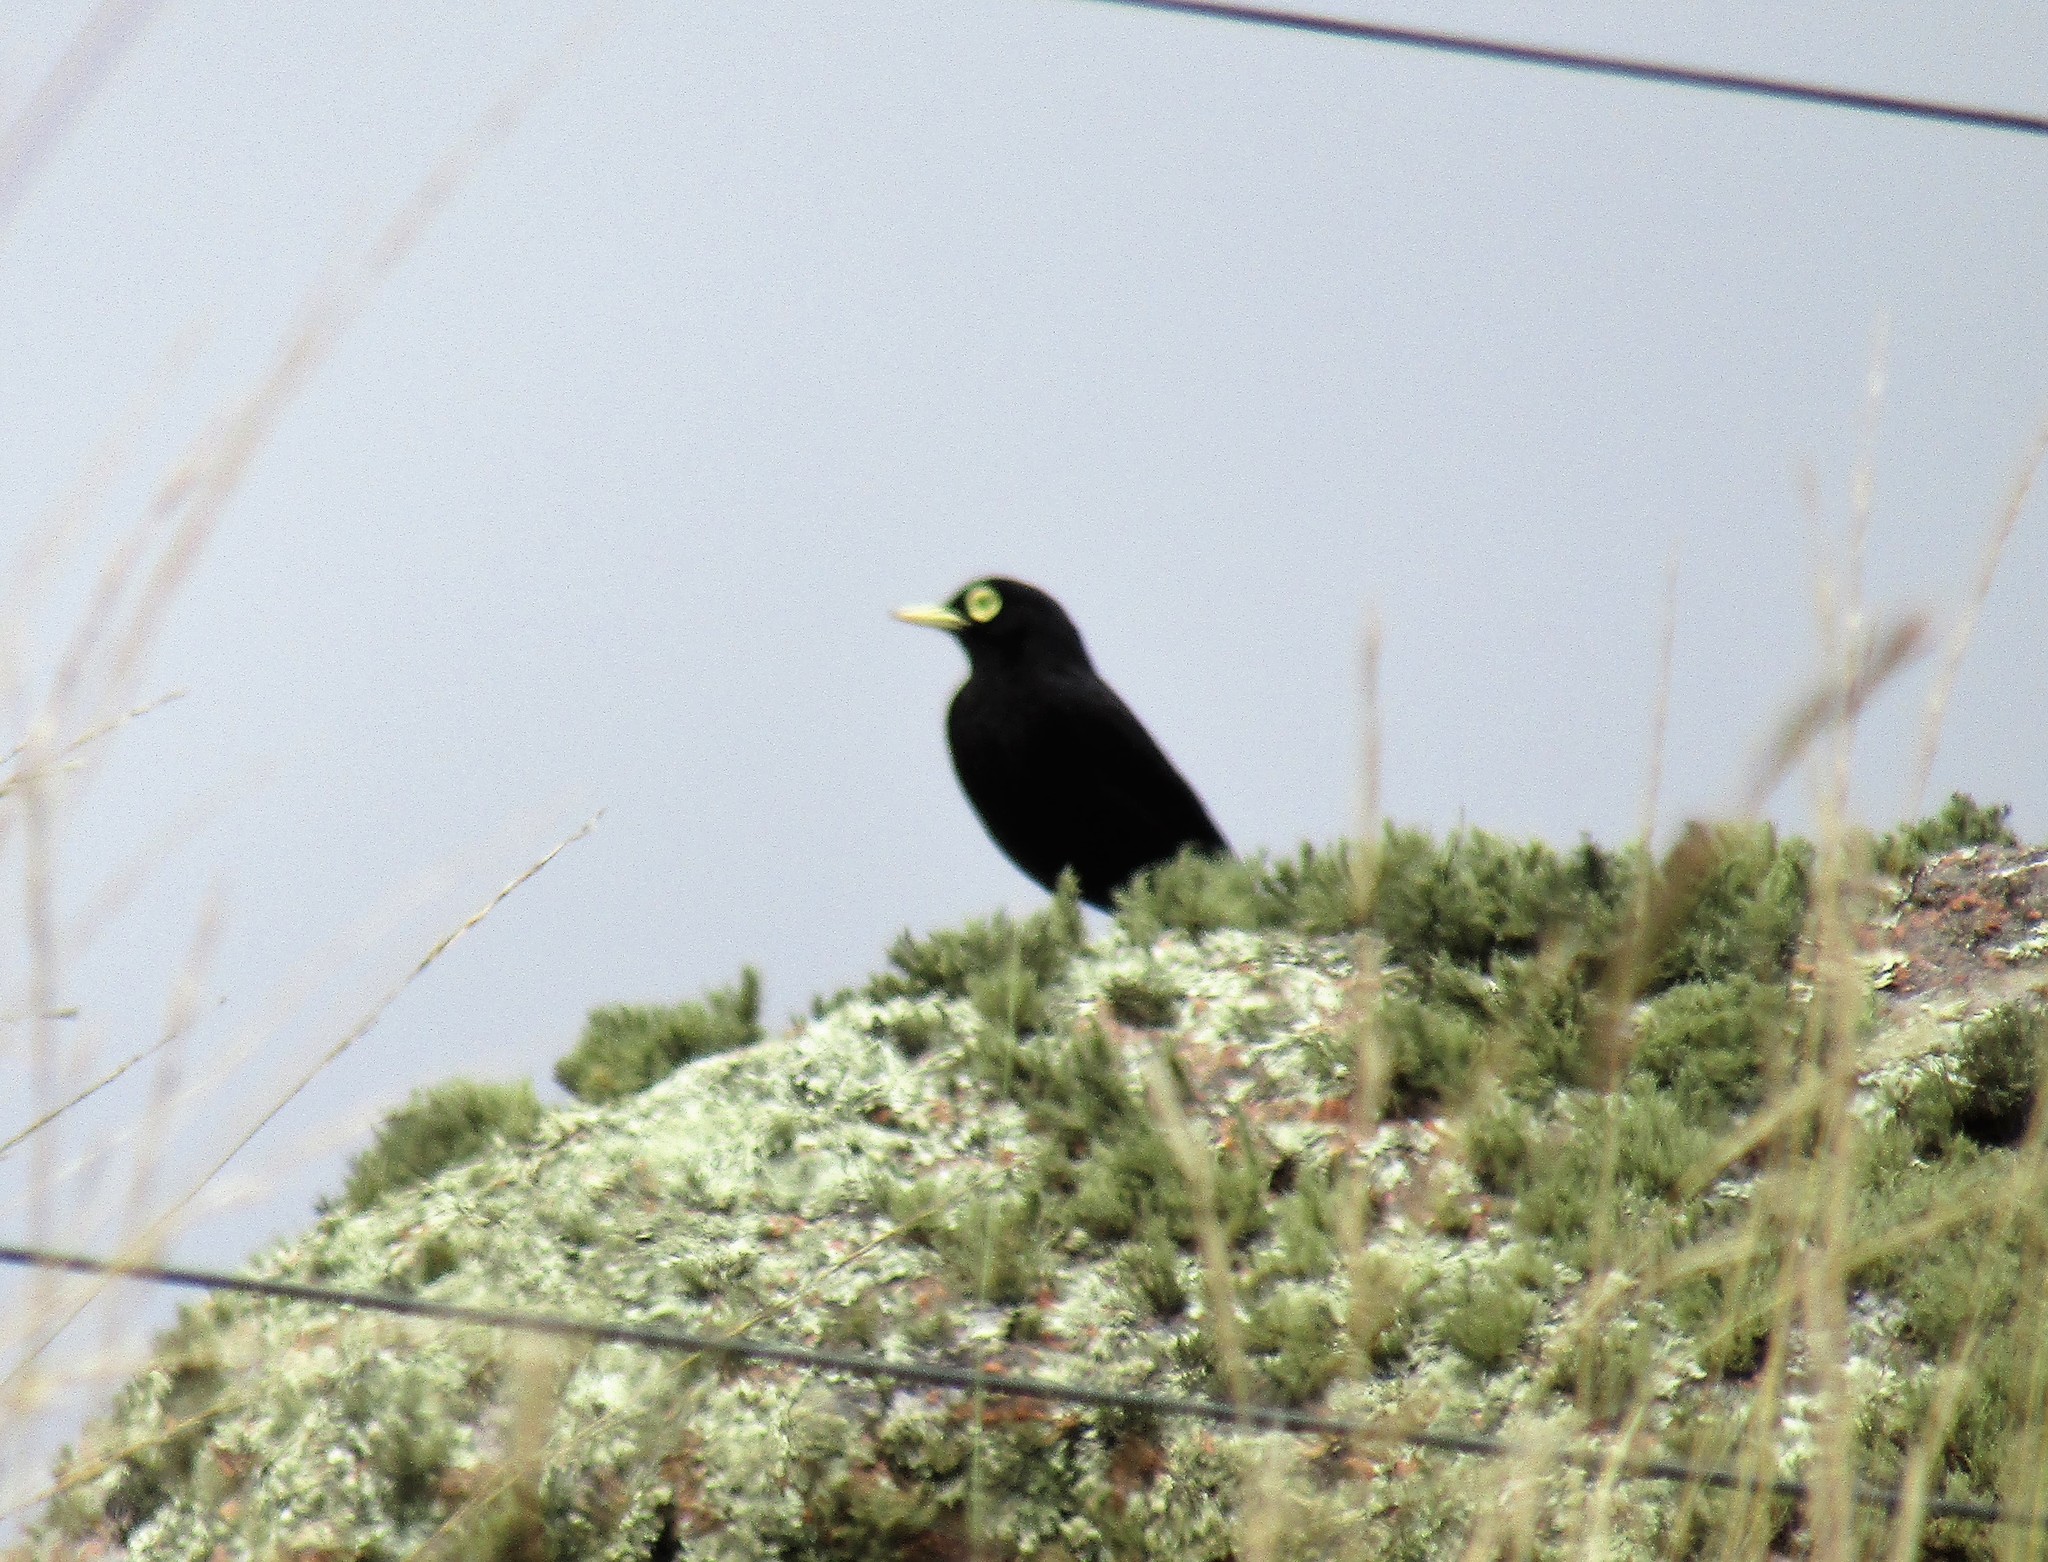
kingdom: Animalia
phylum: Chordata
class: Aves
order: Passeriformes
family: Tyrannidae
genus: Hymenops
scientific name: Hymenops perspicillatus
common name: Spectacled tyrant
